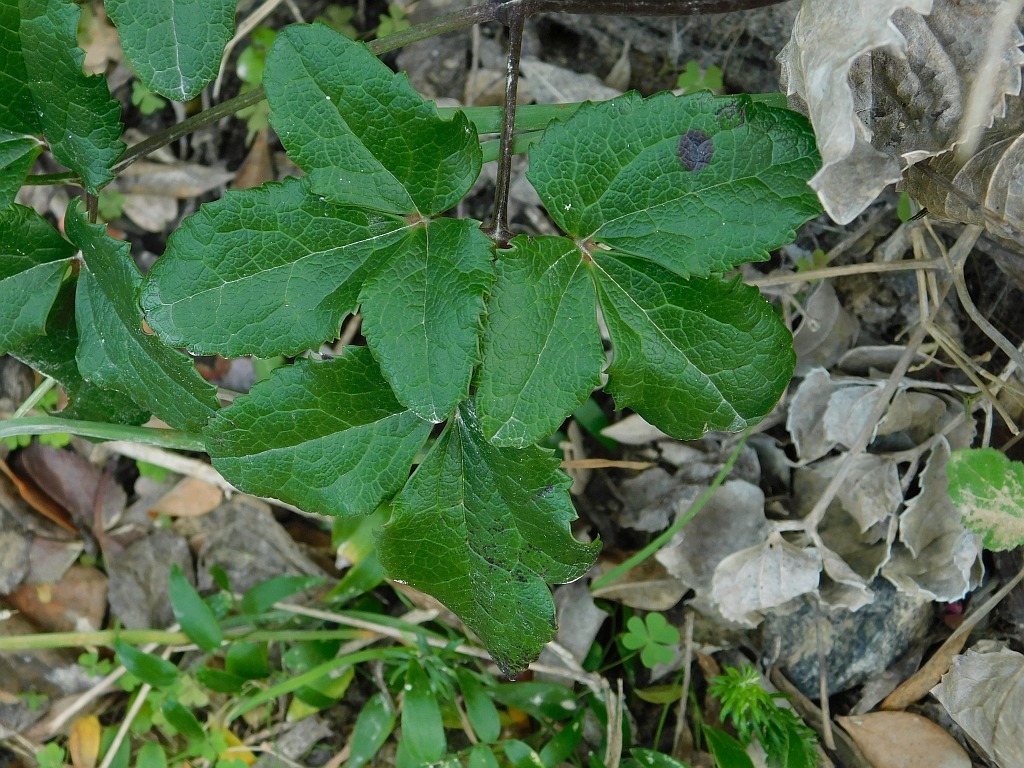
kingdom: Plantae
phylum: Tracheophyta
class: Magnoliopsida
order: Ranunculales
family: Ranunculaceae
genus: Knowltonia
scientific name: Knowltonia vesicatoria
